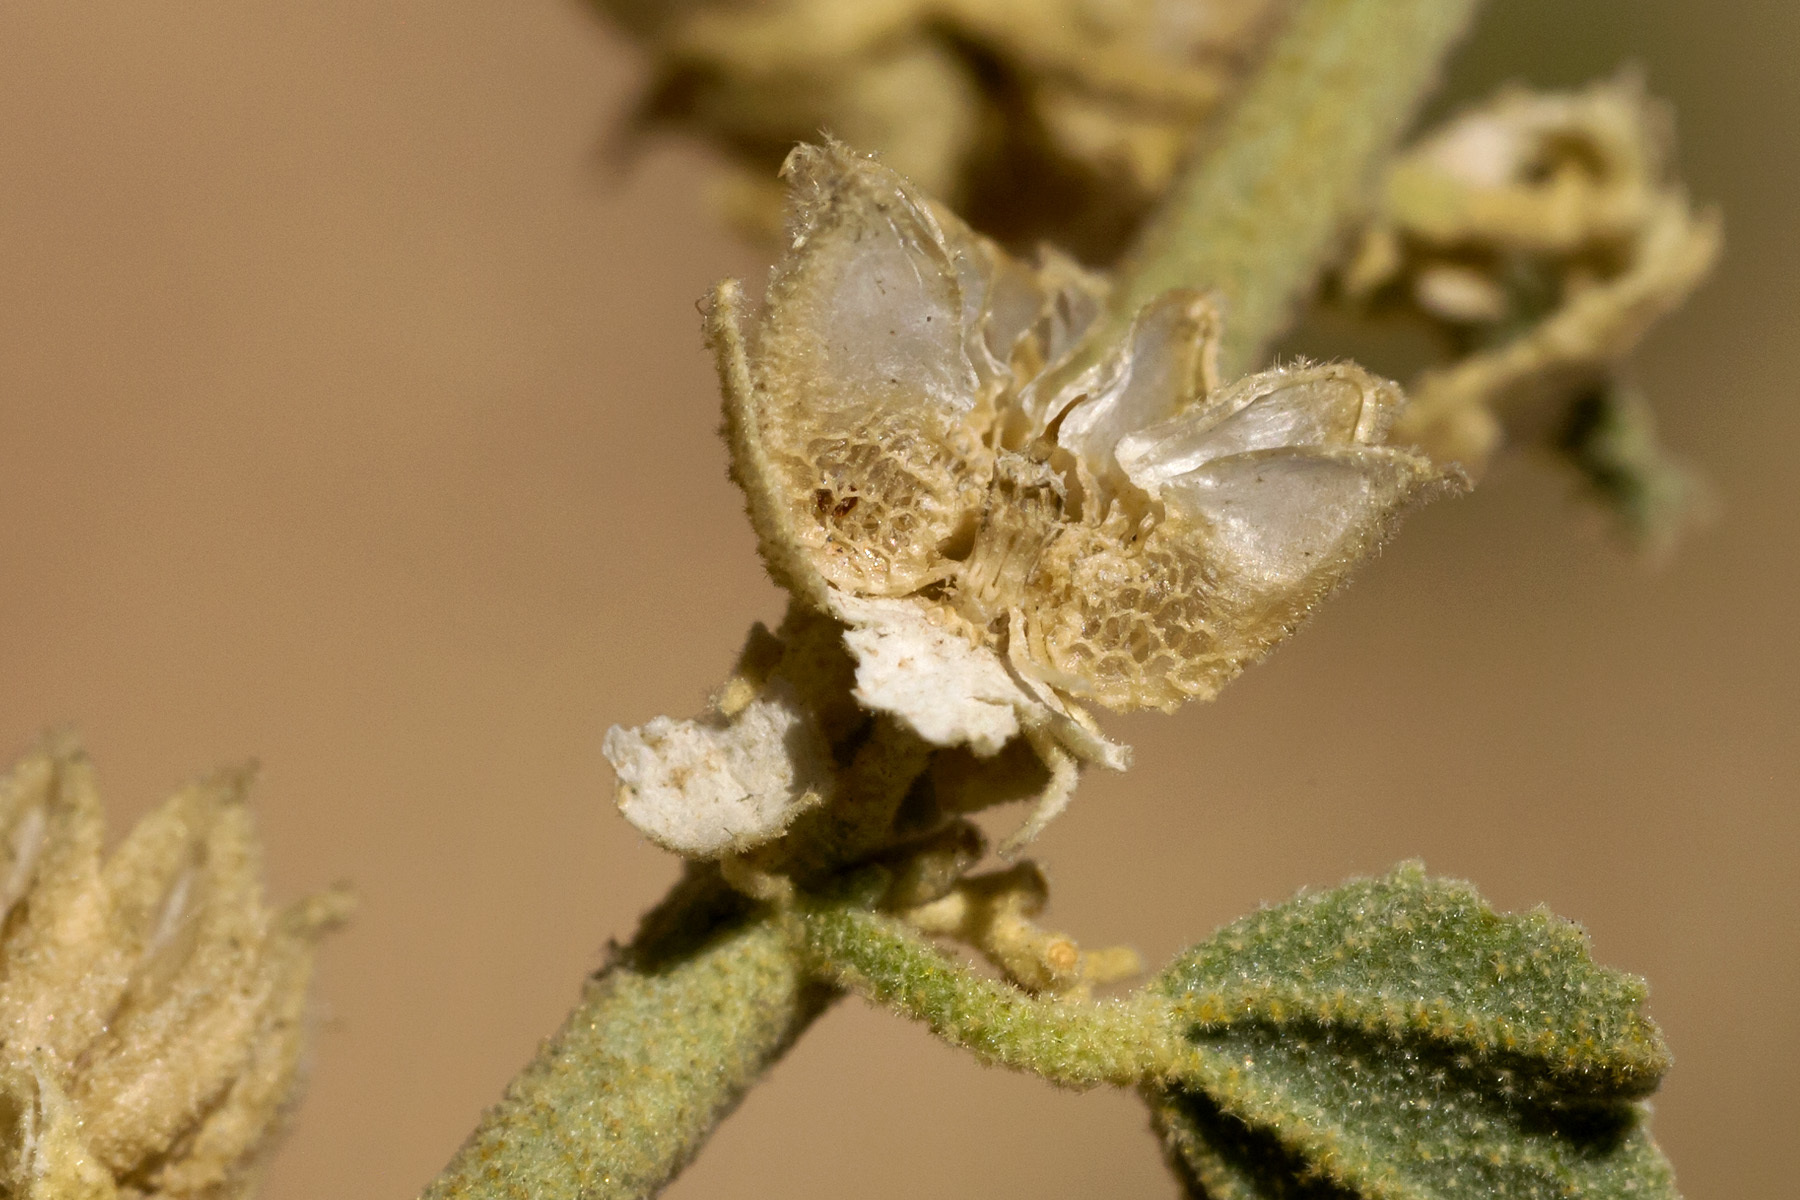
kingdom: Plantae
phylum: Tracheophyta
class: Magnoliopsida
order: Malvales
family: Malvaceae
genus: Sphaeralcea
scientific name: Sphaeralcea incana
